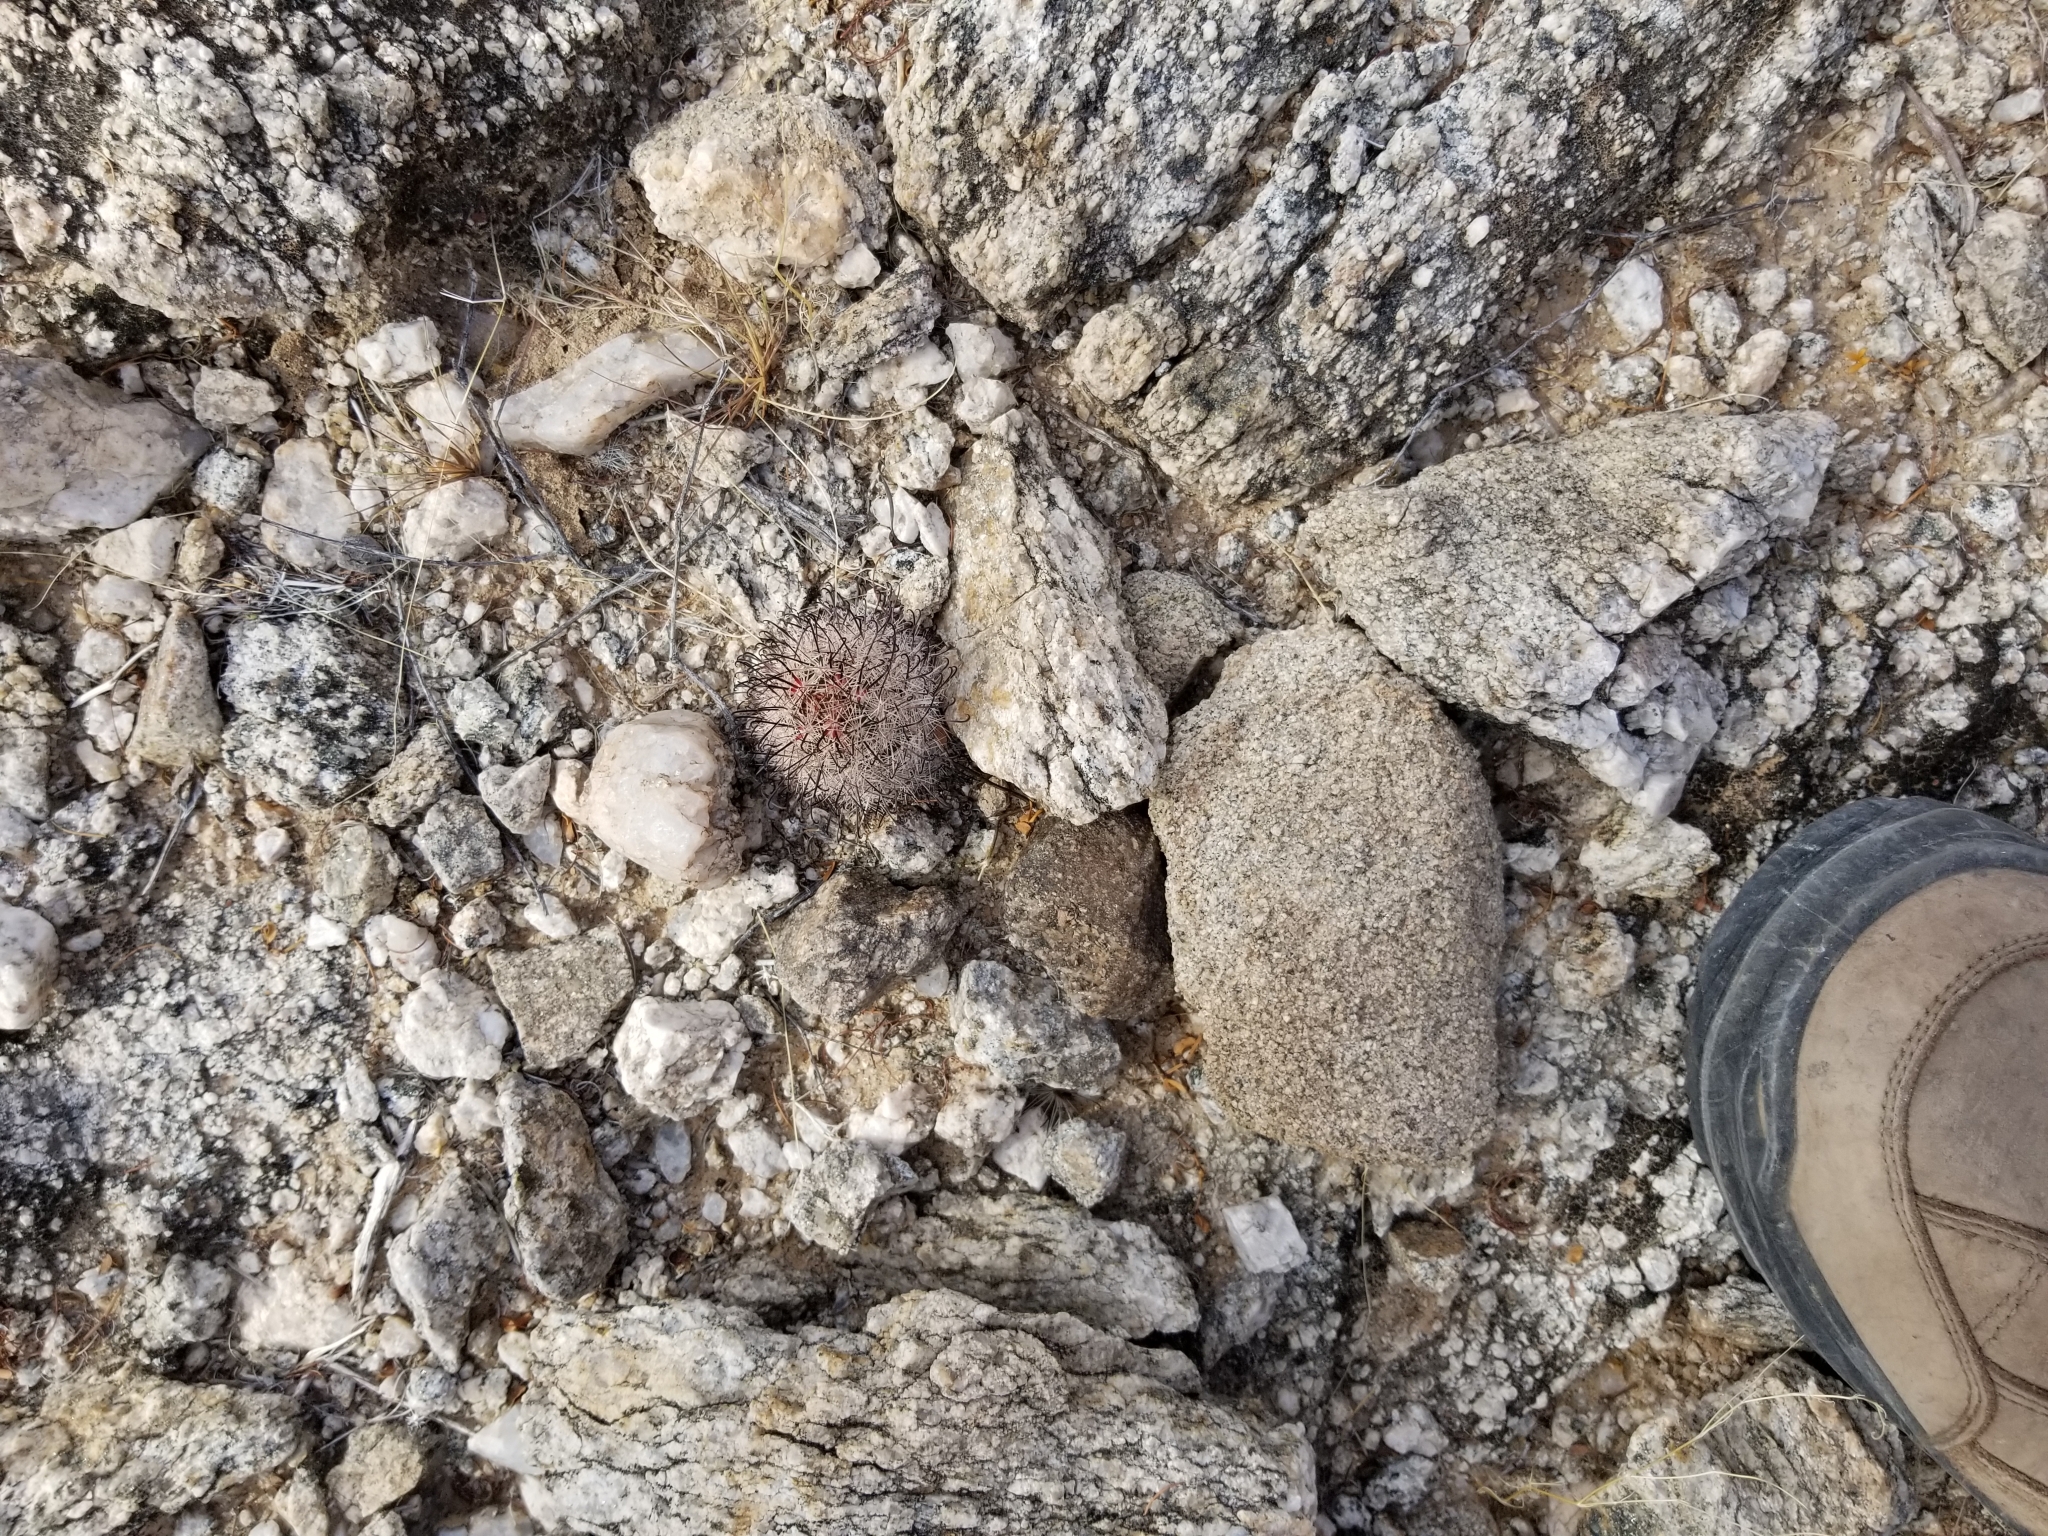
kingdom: Plantae
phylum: Tracheophyta
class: Magnoliopsida
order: Caryophyllales
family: Cactaceae
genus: Cochemiea
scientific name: Cochemiea tetrancistra
